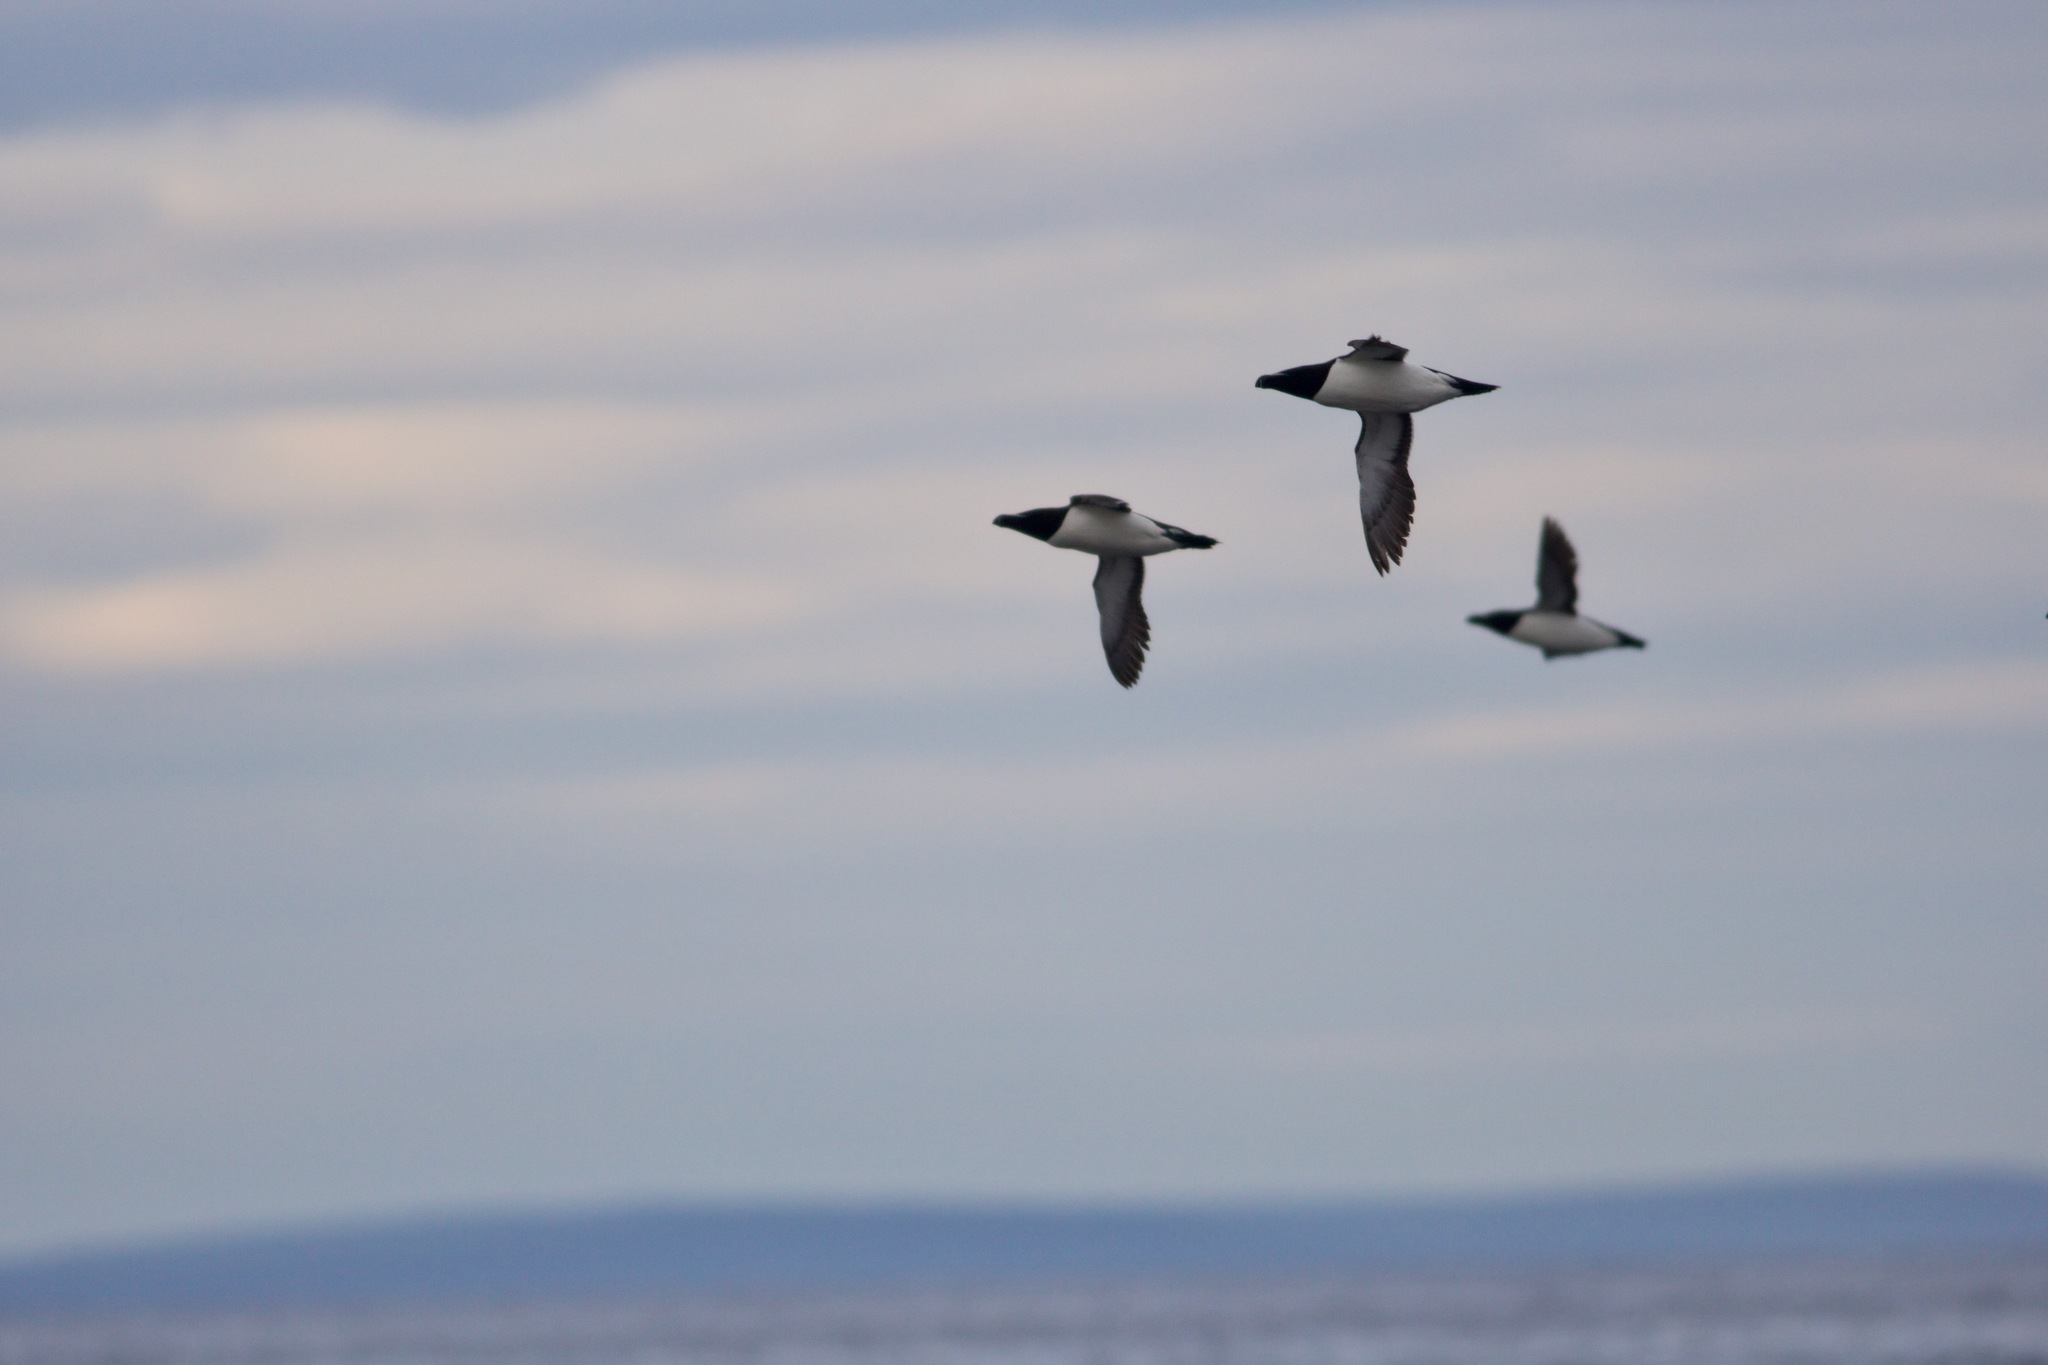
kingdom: Animalia
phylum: Chordata
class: Aves
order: Charadriiformes
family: Alcidae
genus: Alca
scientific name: Alca torda
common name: Razorbill
